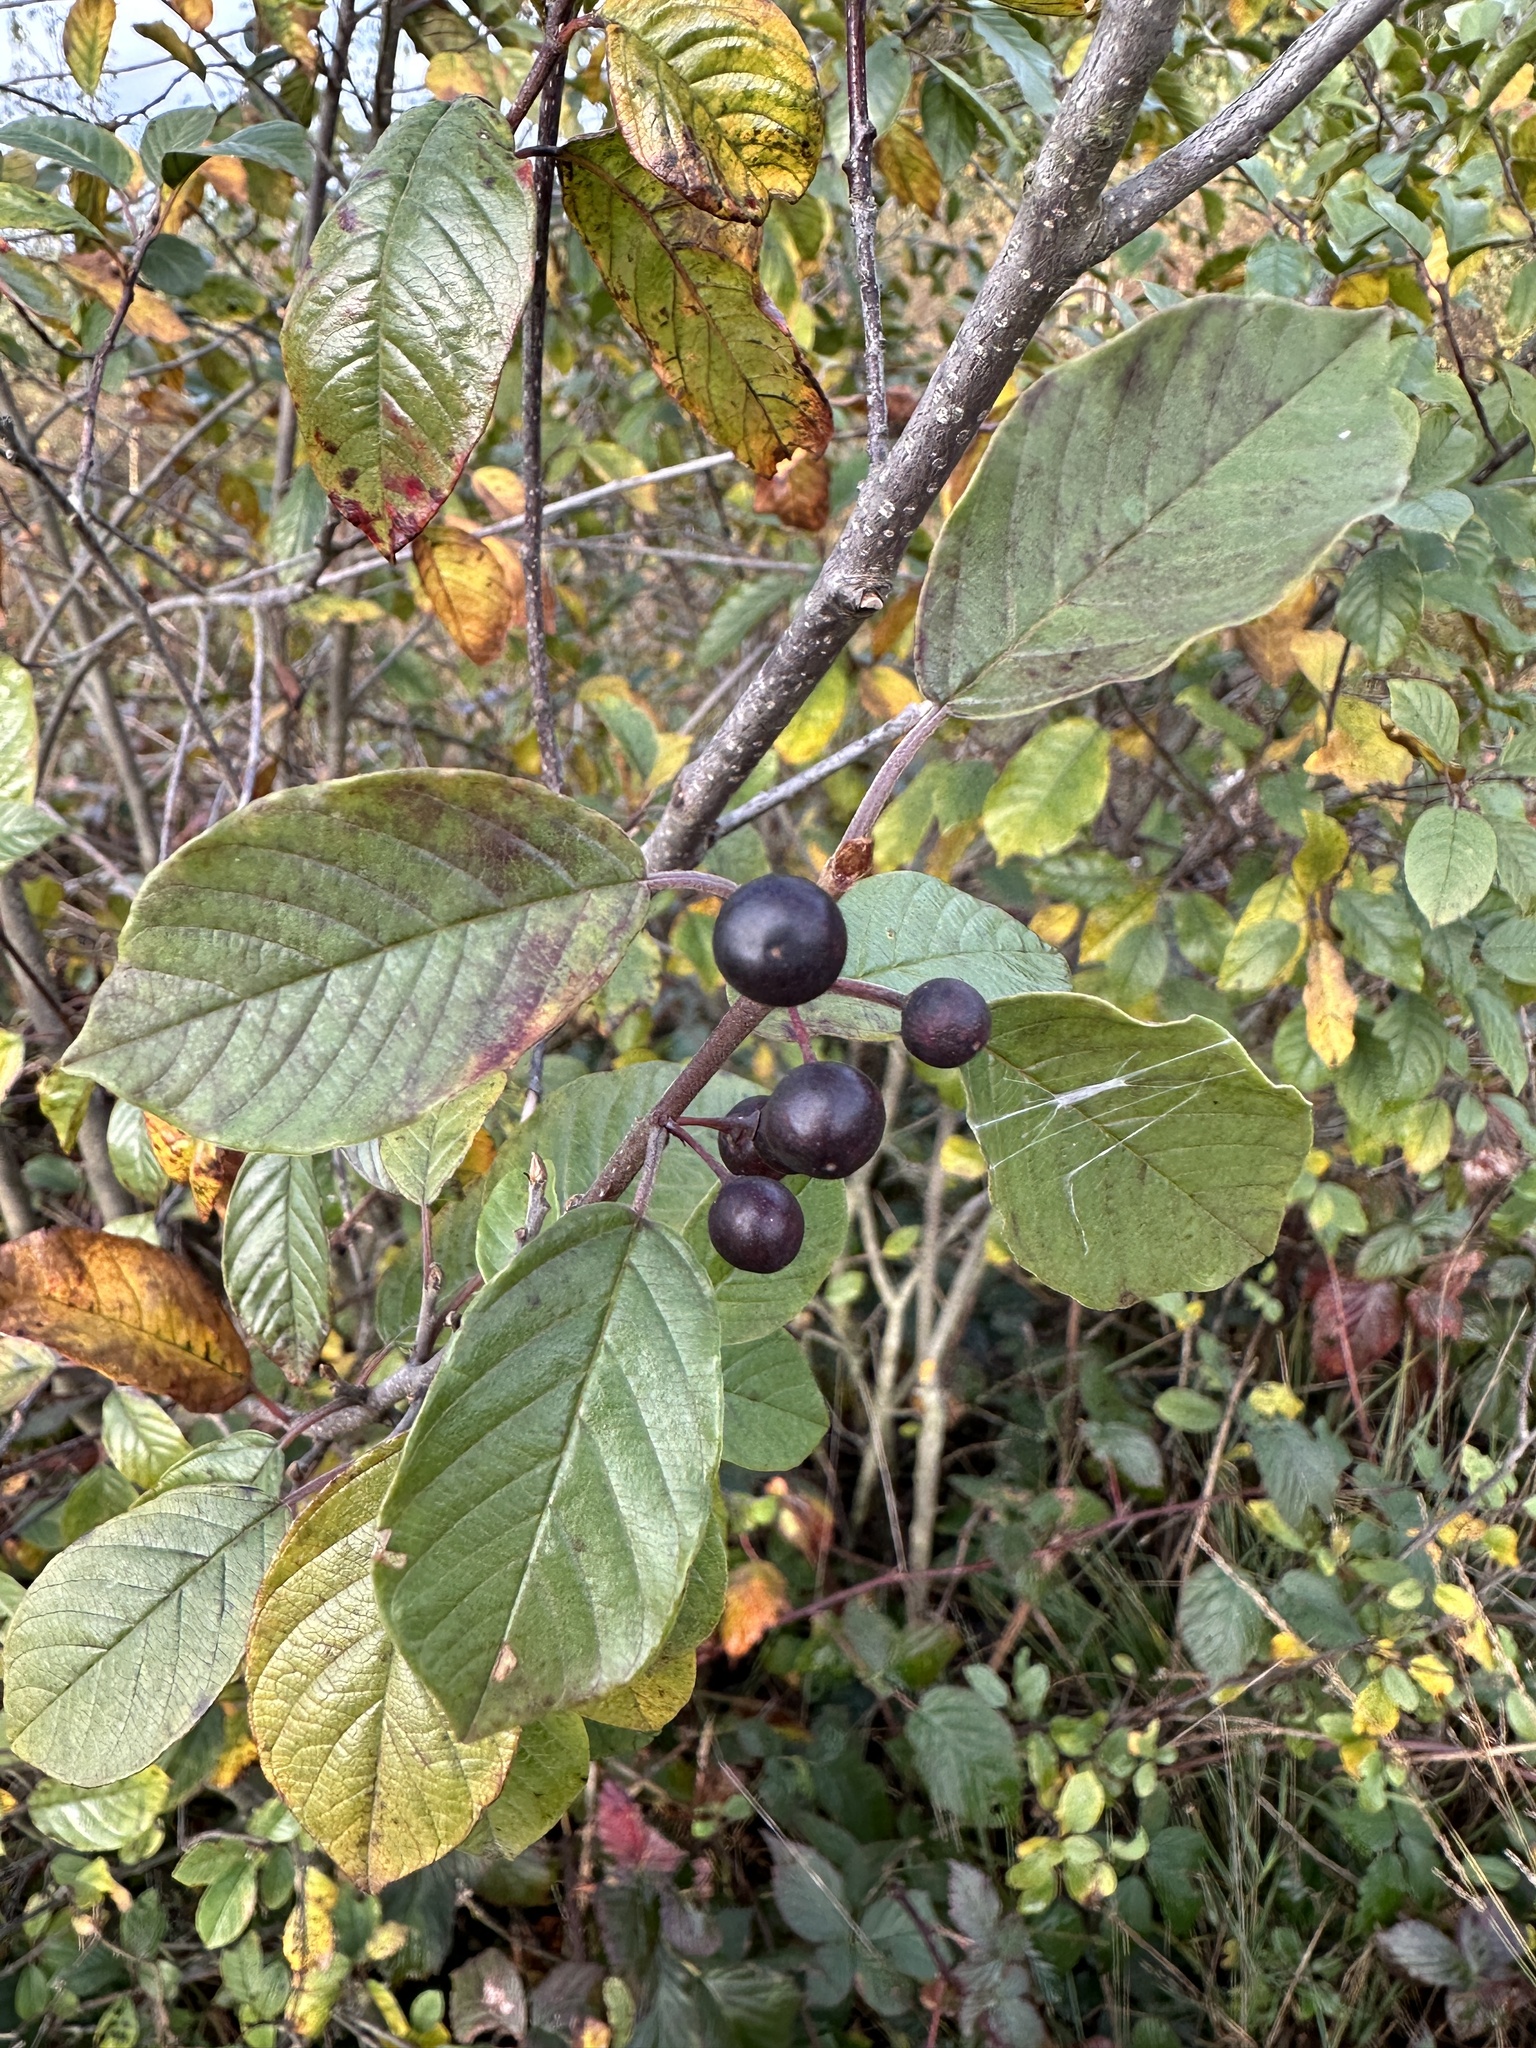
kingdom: Plantae
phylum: Tracheophyta
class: Magnoliopsida
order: Rosales
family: Rhamnaceae
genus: Frangula
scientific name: Frangula alnus
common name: Alder buckthorn
